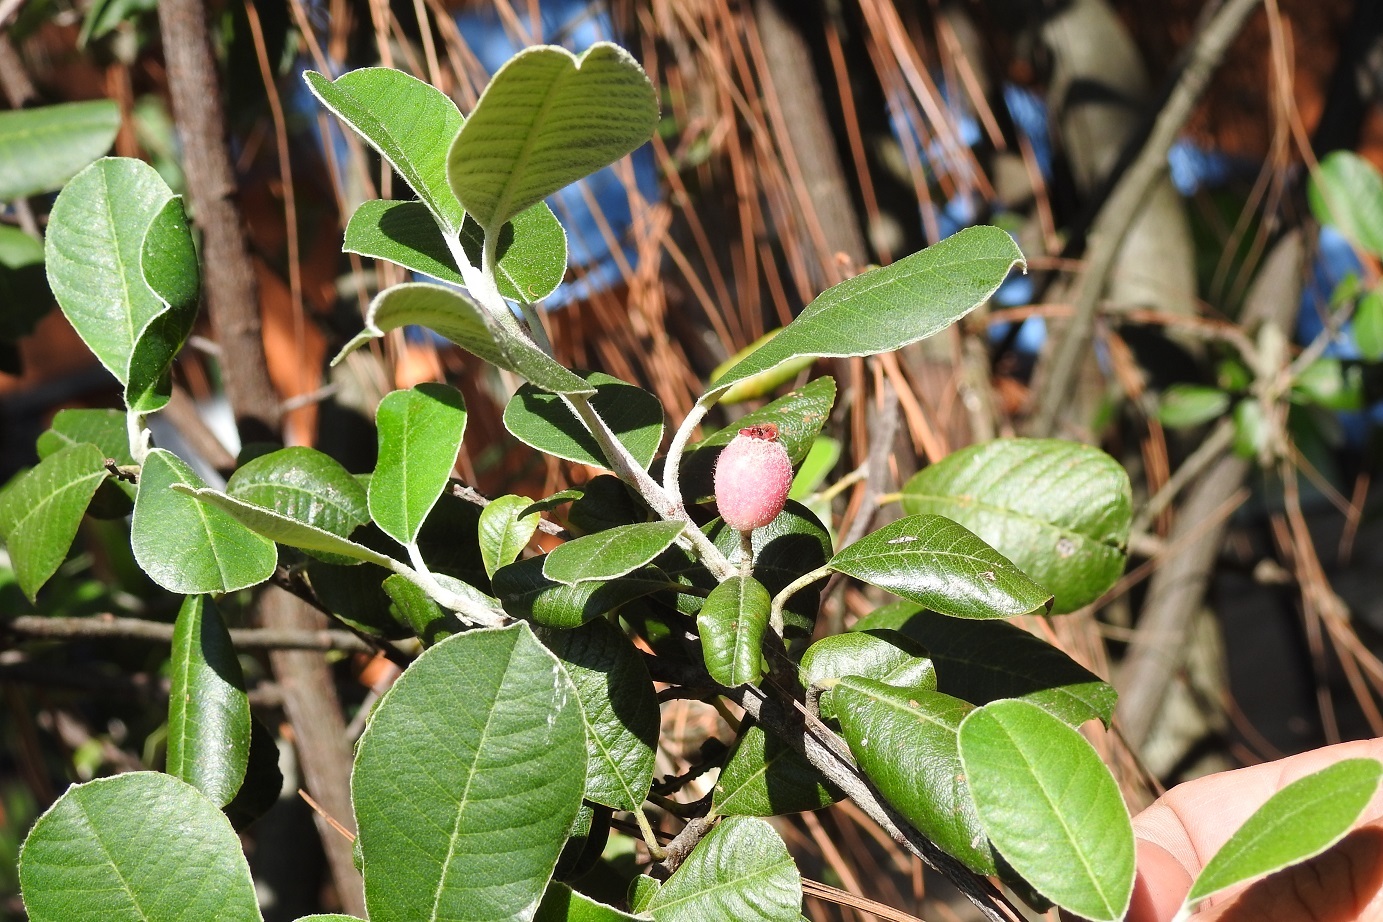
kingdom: Plantae
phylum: Tracheophyta
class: Magnoliopsida
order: Rosales
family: Rosaceae
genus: Malacomeles
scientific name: Malacomeles nervosa
